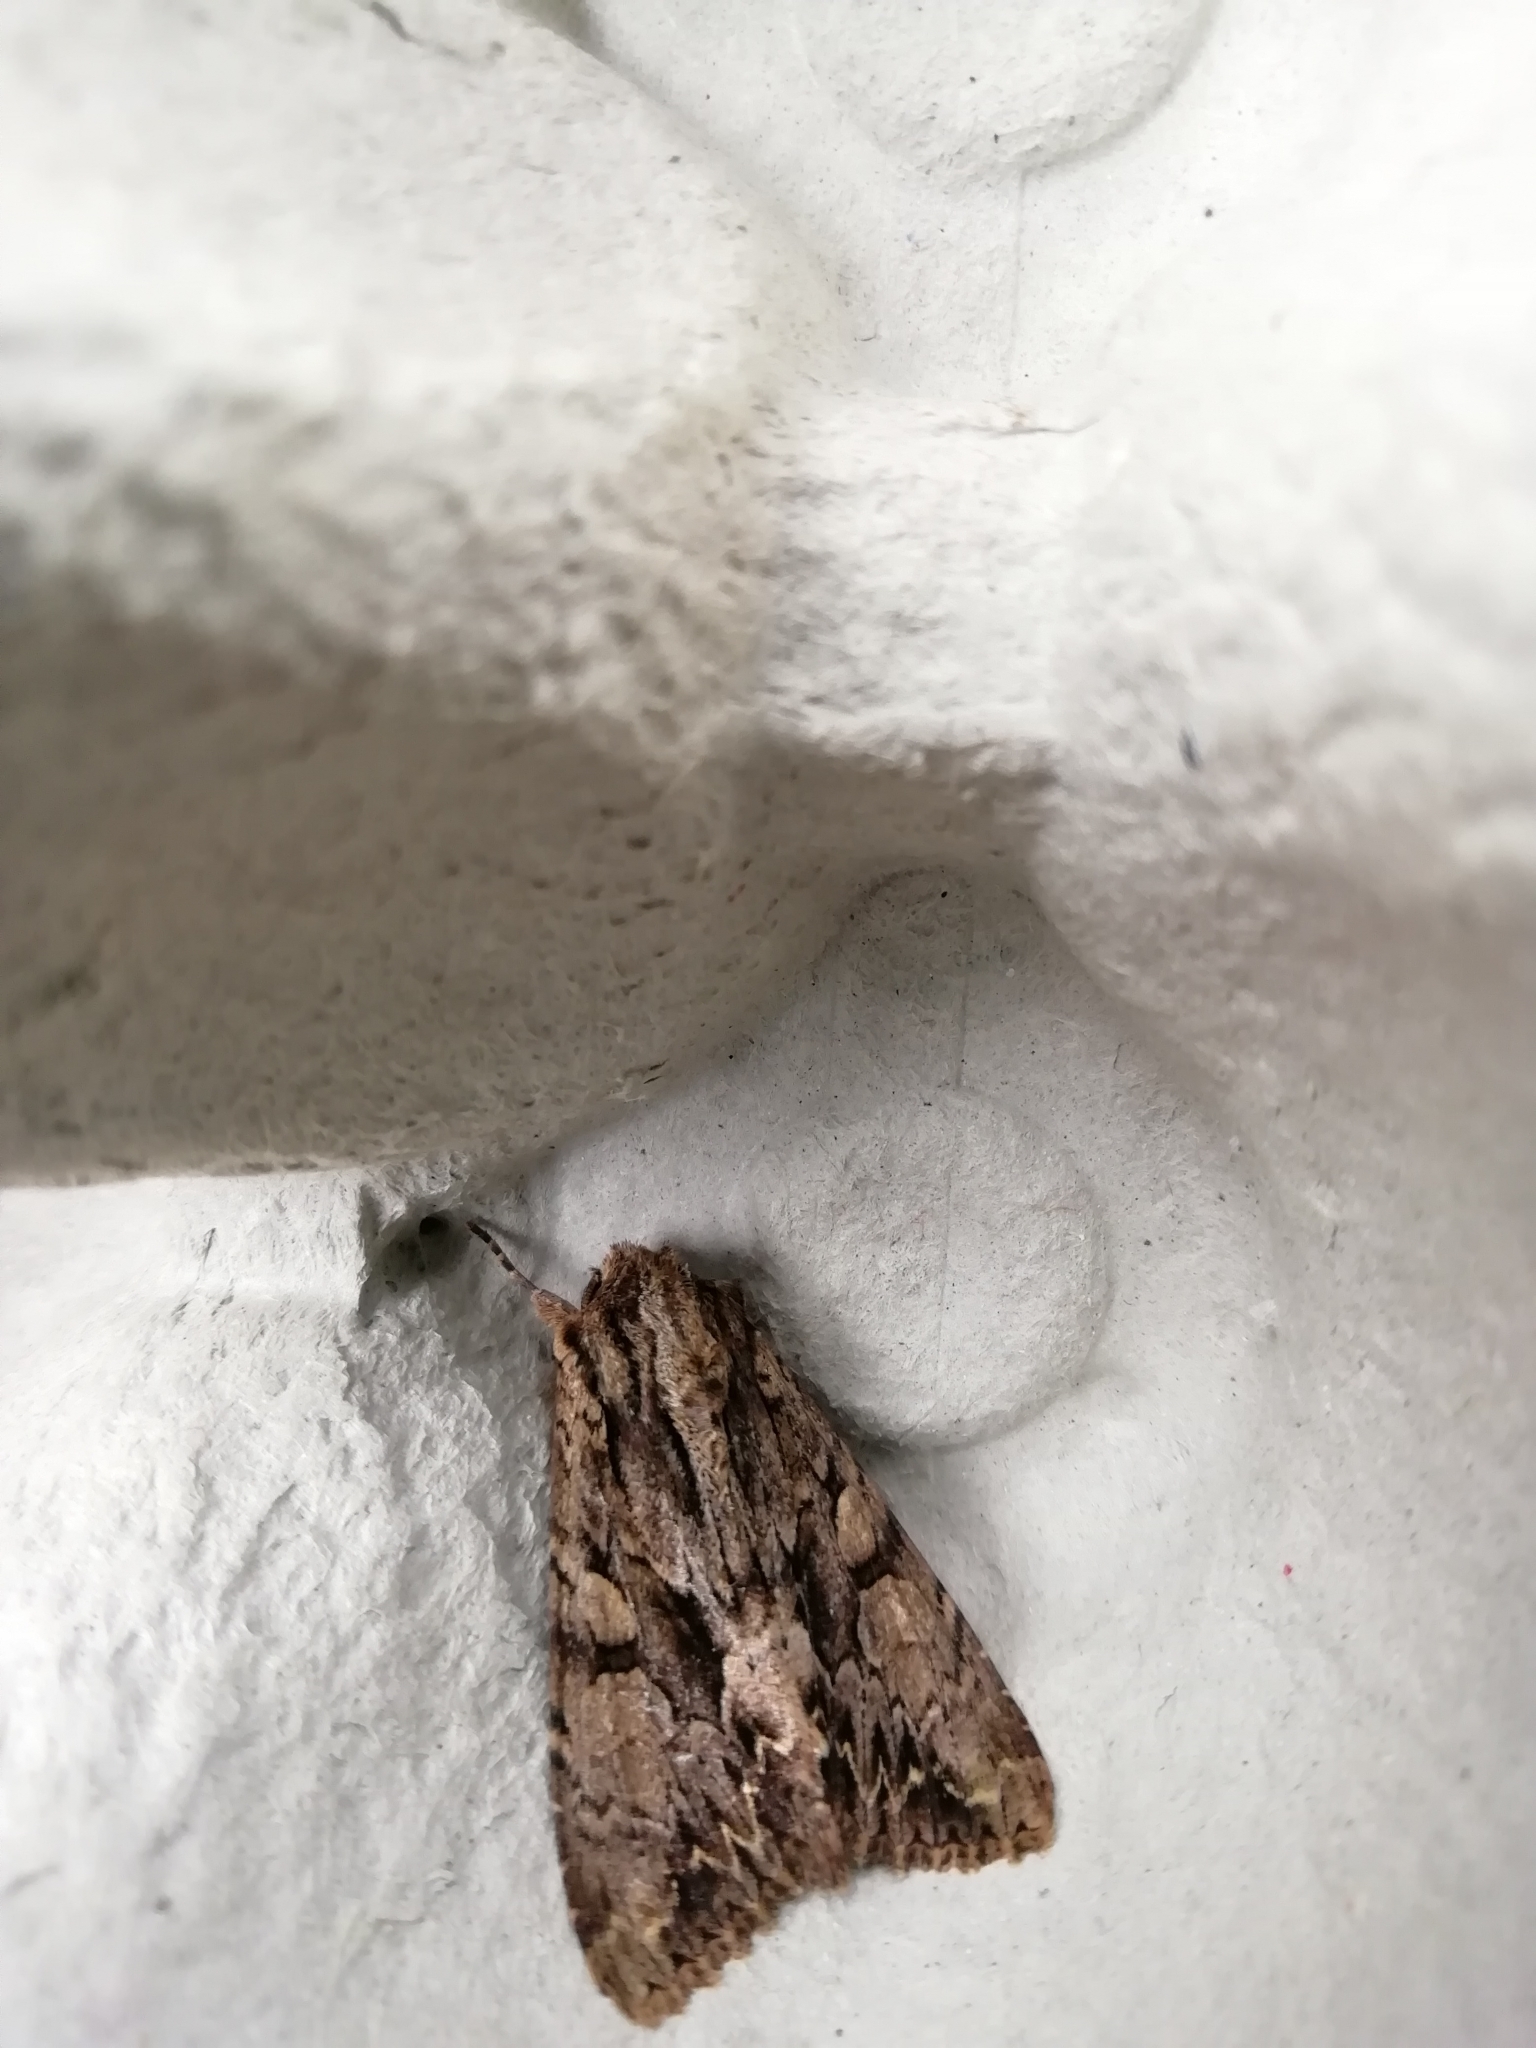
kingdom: Animalia
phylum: Arthropoda
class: Insecta
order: Lepidoptera
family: Noctuidae
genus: Apamea
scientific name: Apamea monoglypha
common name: Dark arches
